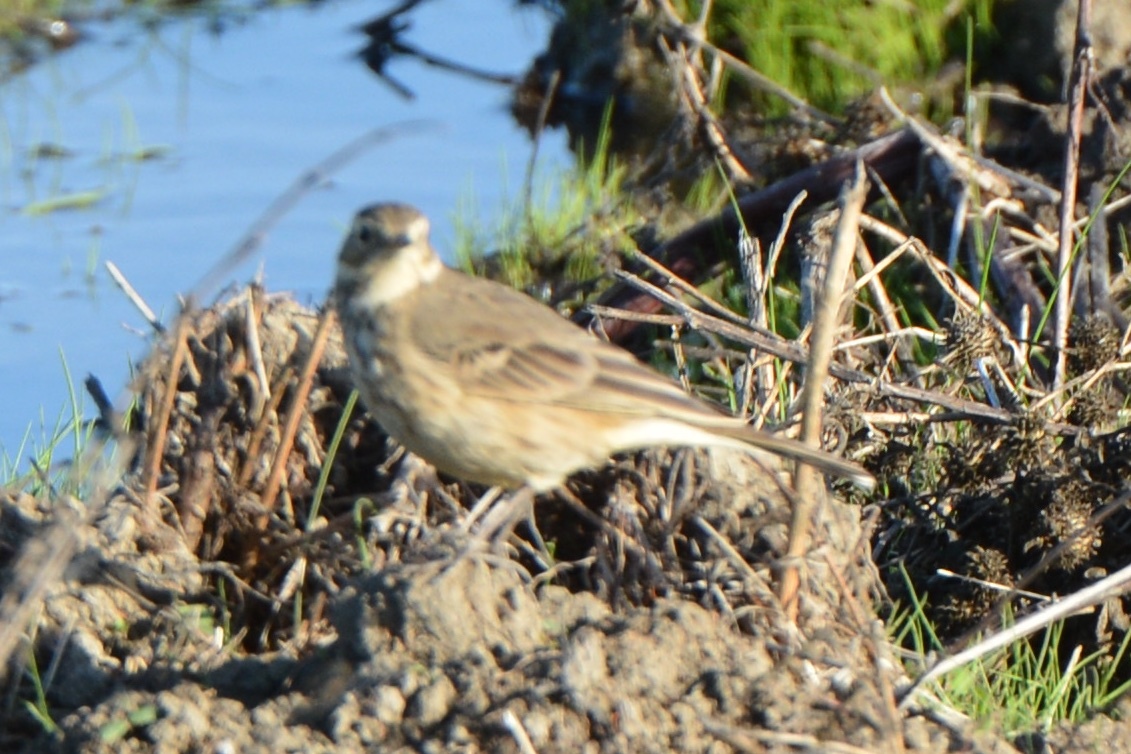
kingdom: Animalia
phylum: Chordata
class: Aves
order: Passeriformes
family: Motacillidae
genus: Anthus
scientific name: Anthus rubescens
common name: Buff-bellied pipit
